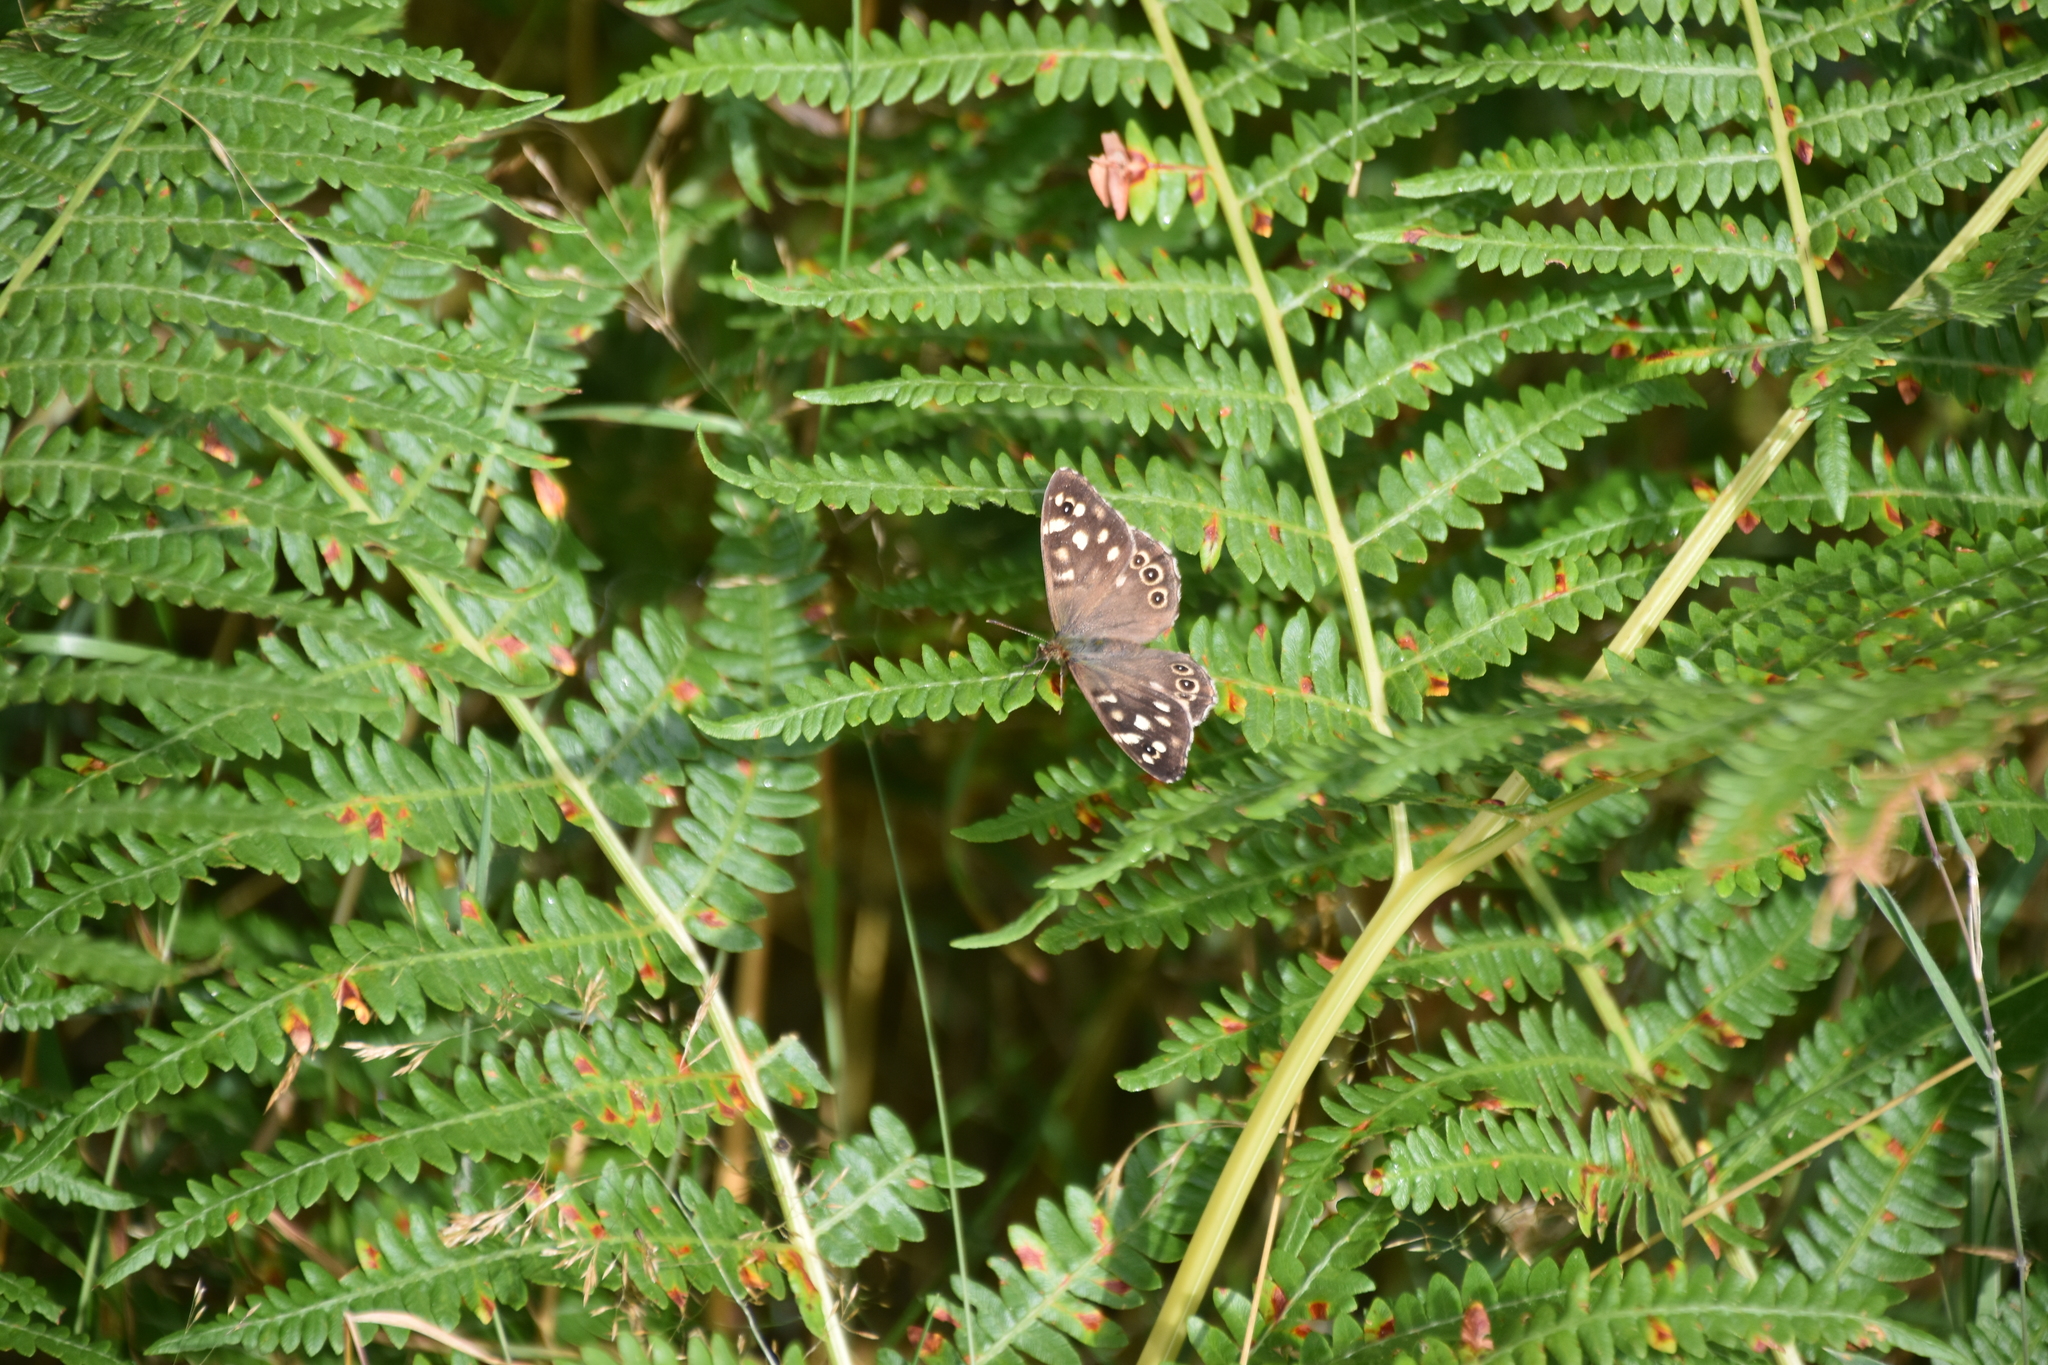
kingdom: Animalia
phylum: Arthropoda
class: Insecta
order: Lepidoptera
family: Nymphalidae
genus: Pararge
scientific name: Pararge aegeria
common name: Speckled wood
